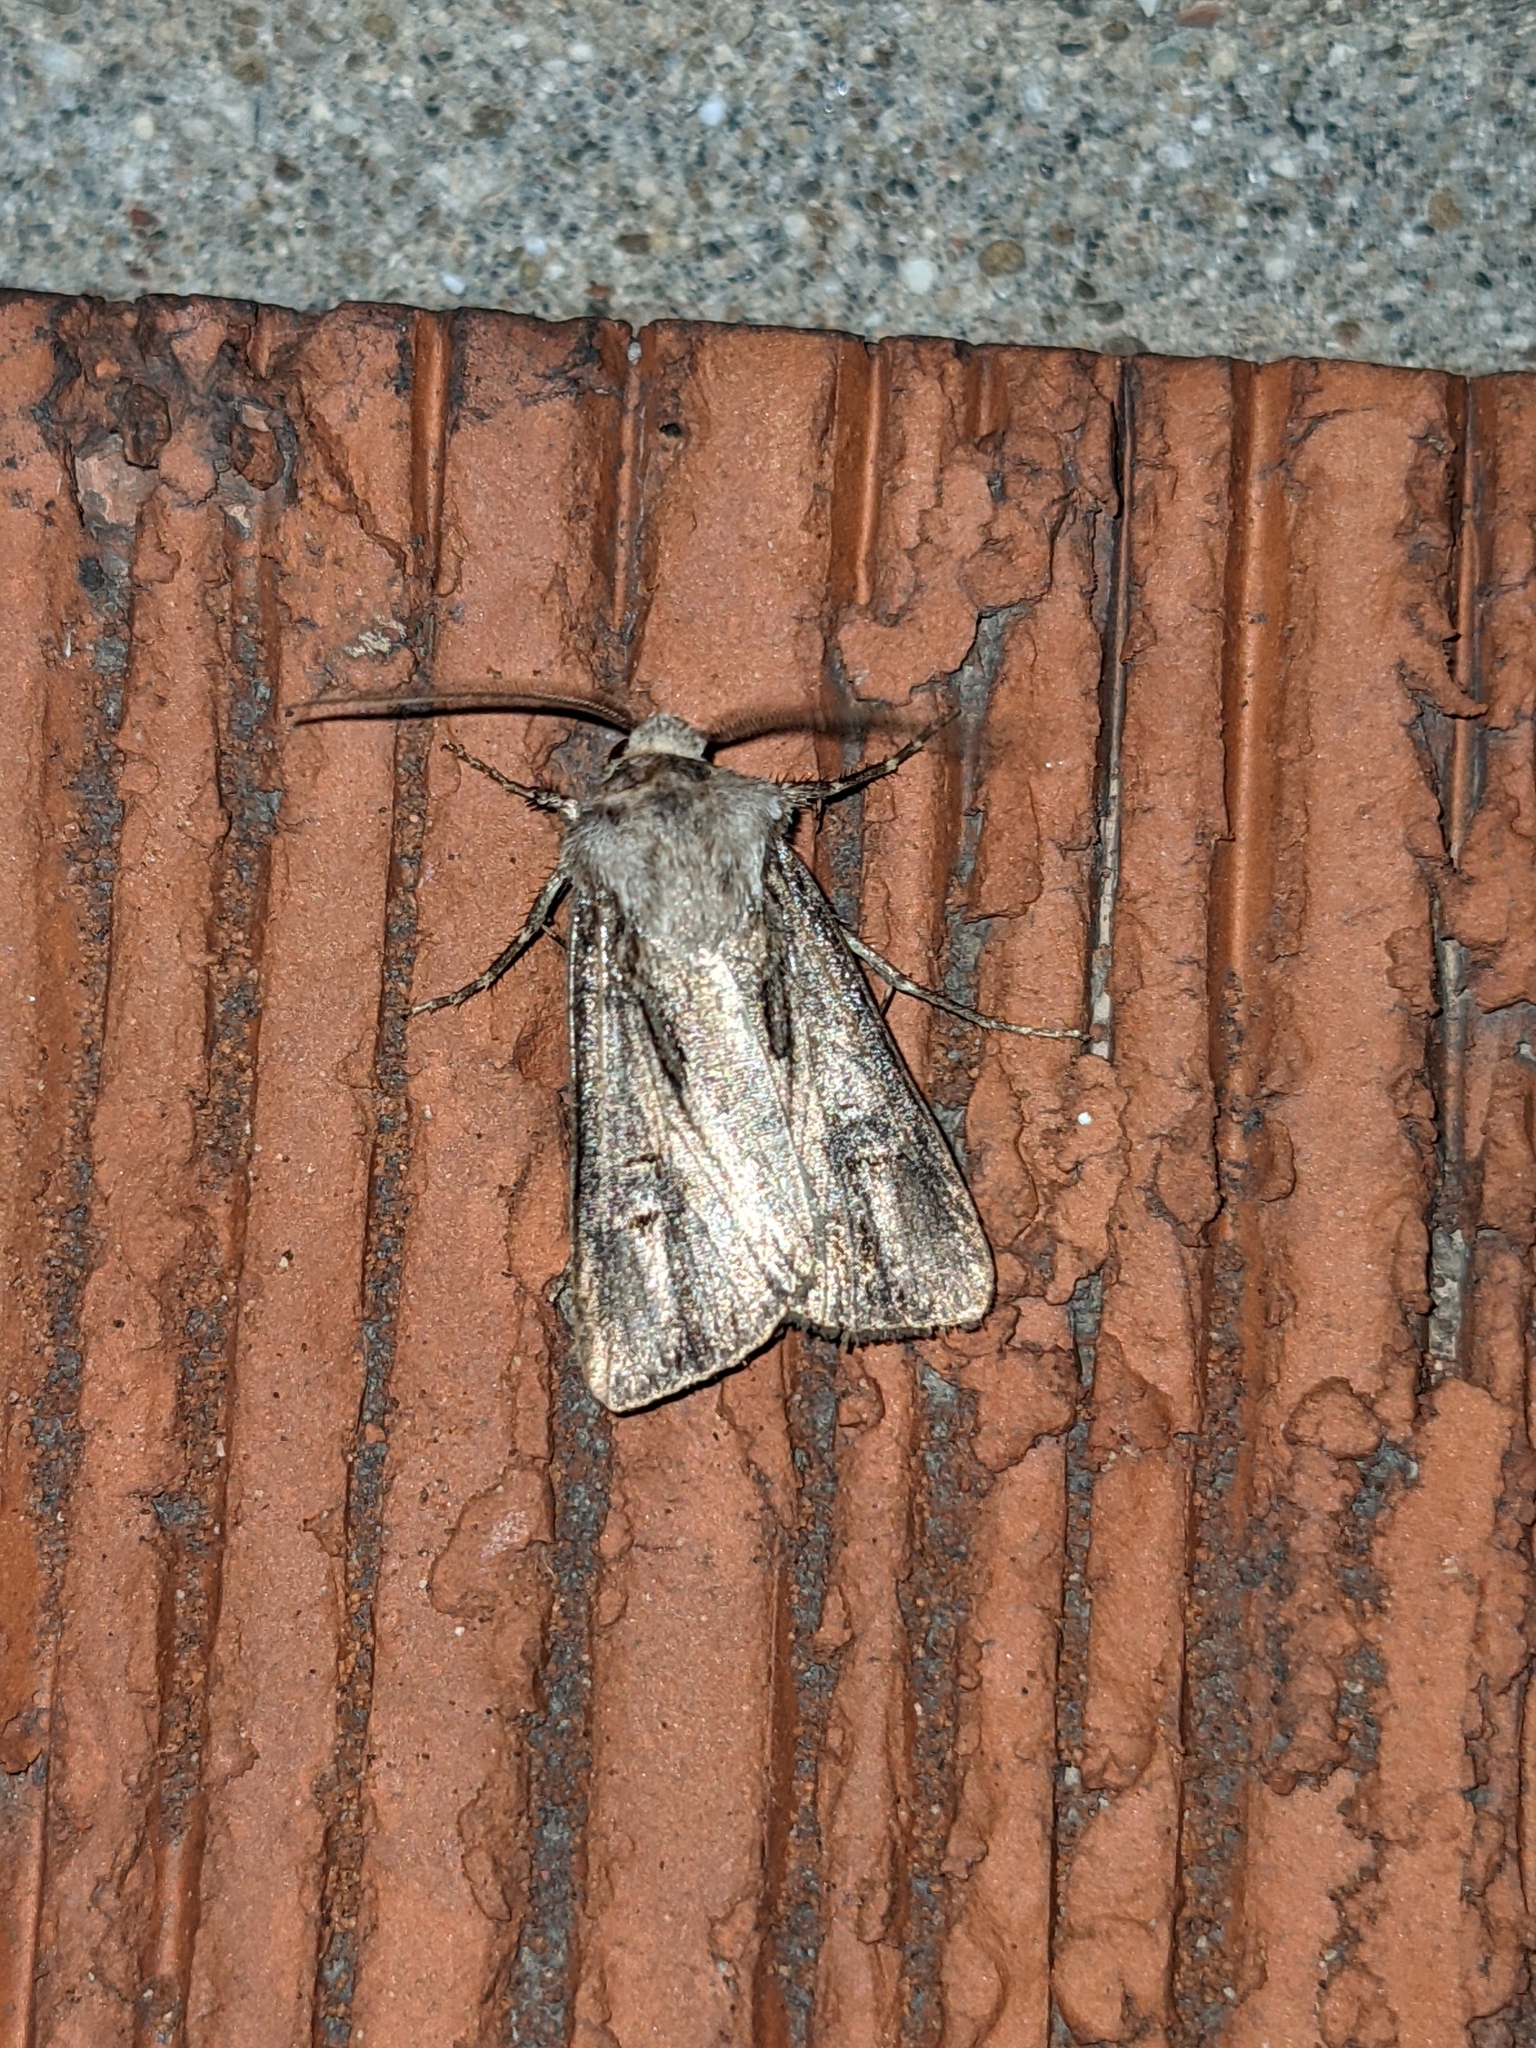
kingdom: Animalia
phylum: Arthropoda
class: Insecta
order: Lepidoptera
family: Noctuidae
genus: Agrotis
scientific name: Agrotis venerabilis
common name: Venerable dart
